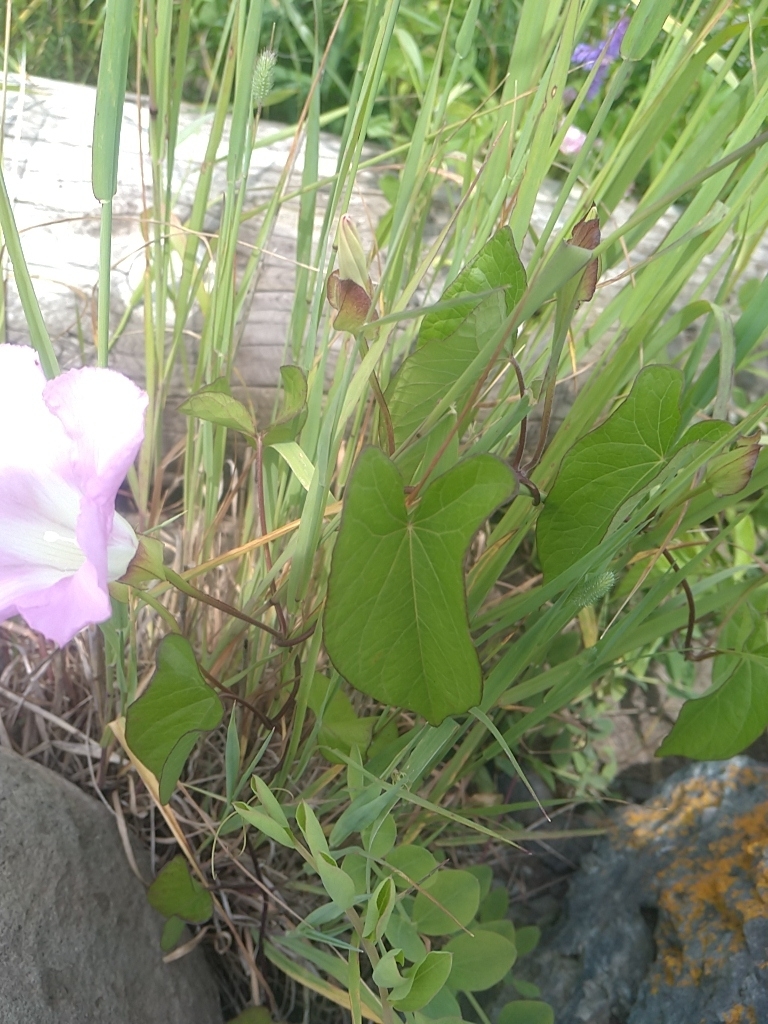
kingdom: Plantae
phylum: Tracheophyta
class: Magnoliopsida
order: Solanales
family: Convolvulaceae
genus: Calystegia
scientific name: Calystegia sepium
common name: Hedge bindweed
